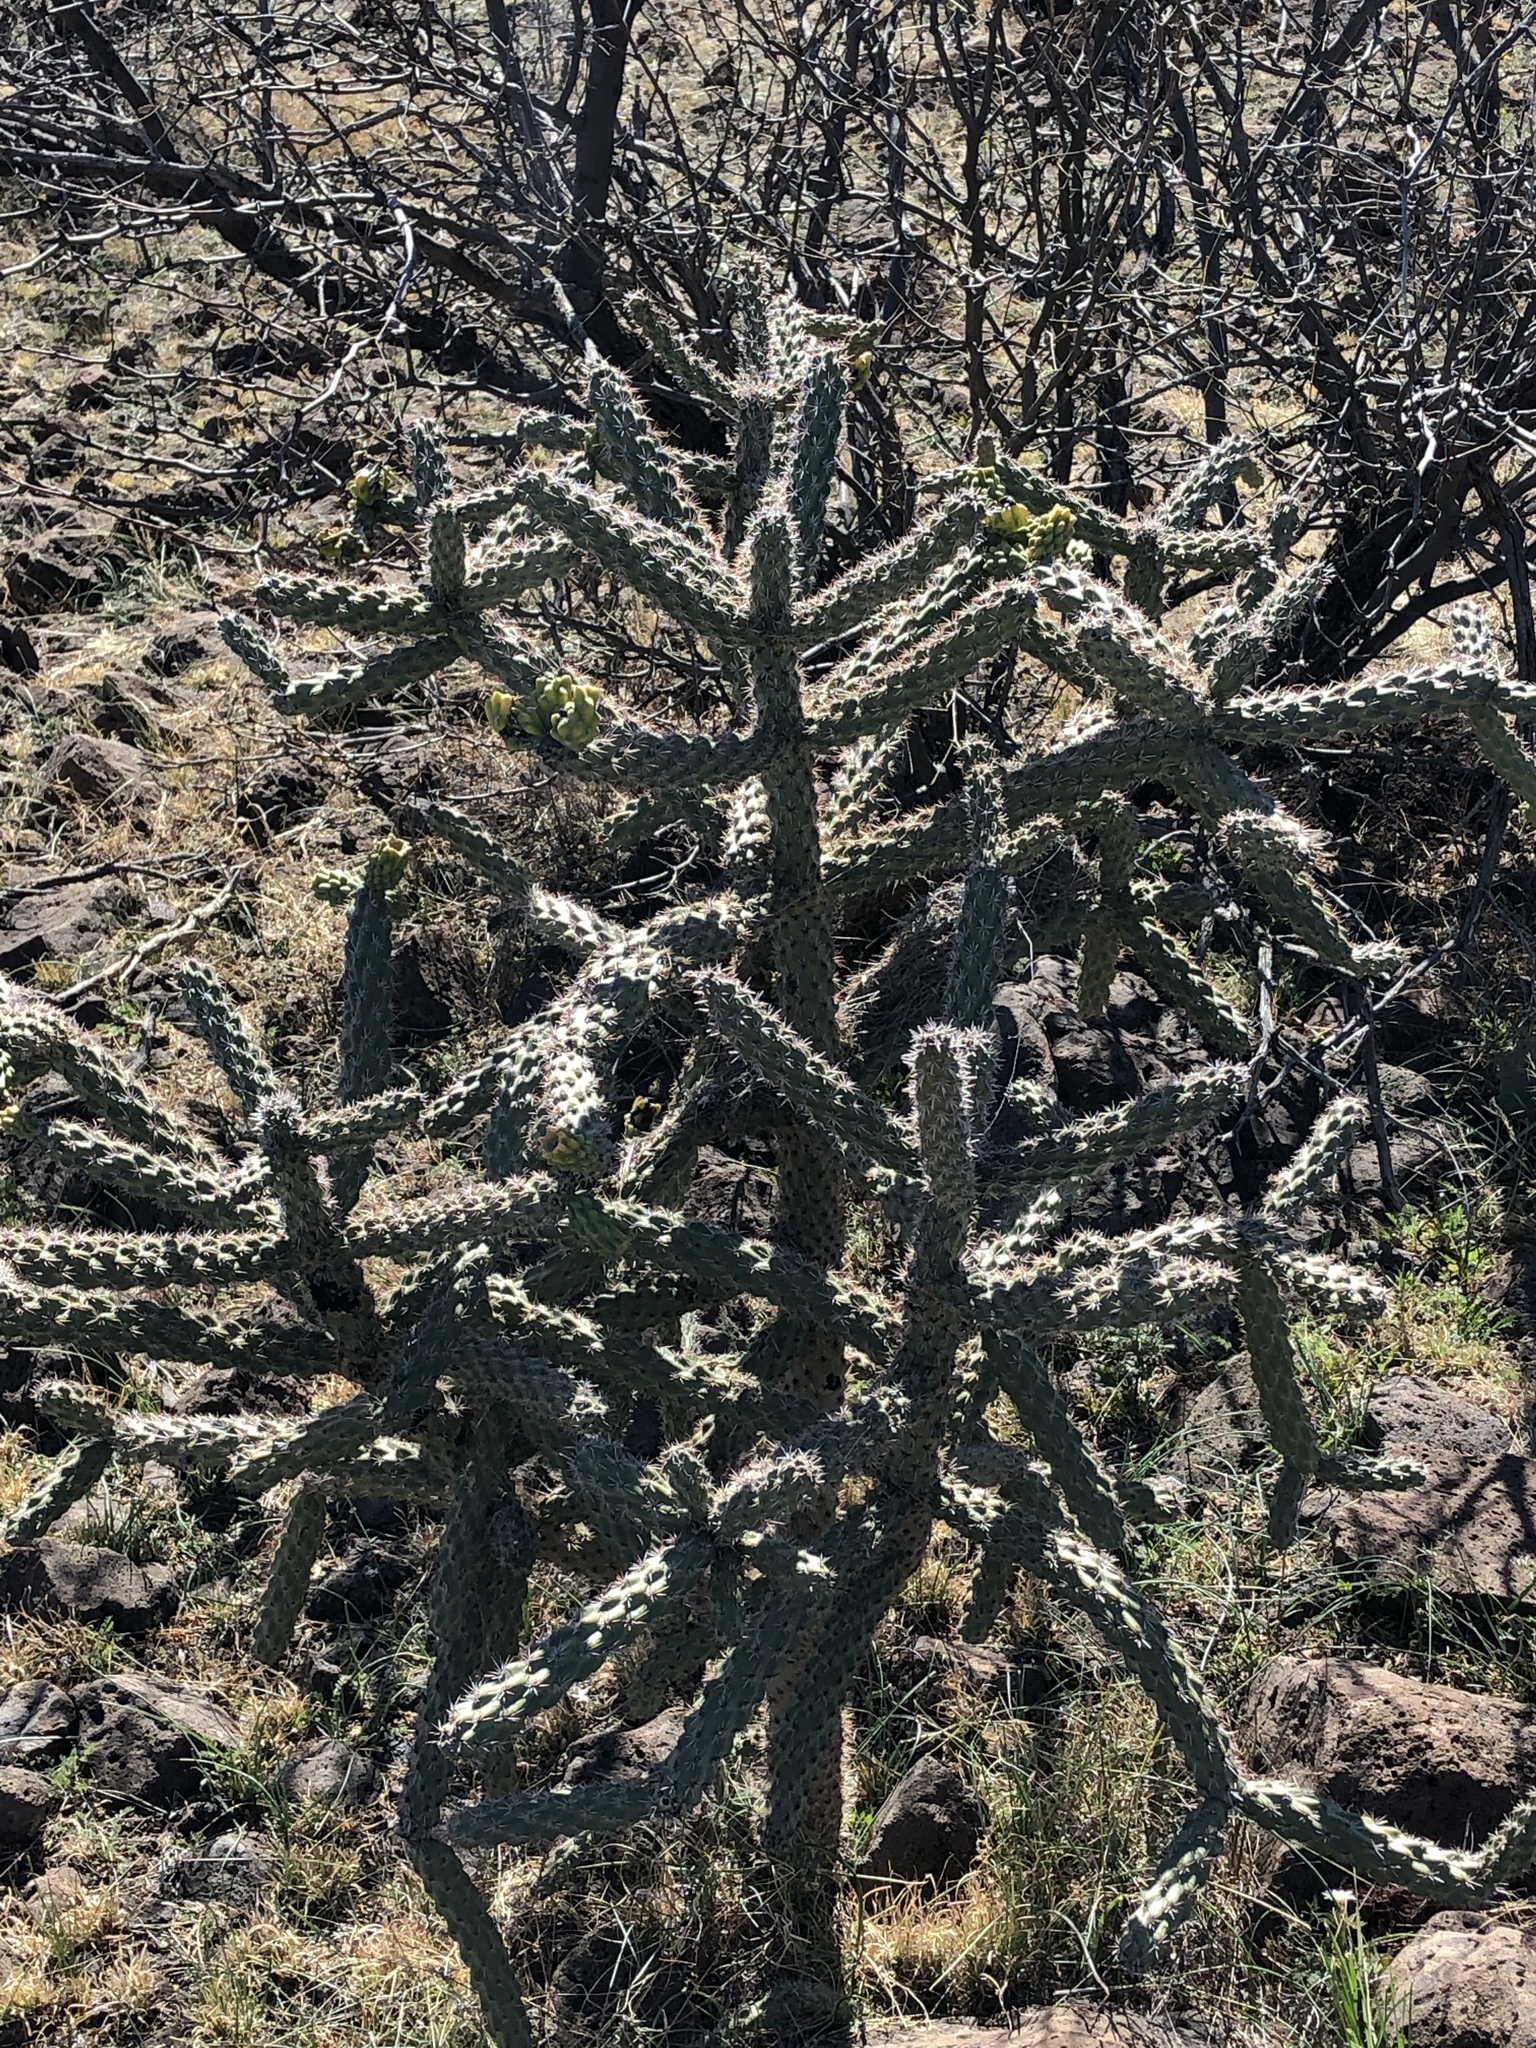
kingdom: Plantae
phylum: Tracheophyta
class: Magnoliopsida
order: Caryophyllales
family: Cactaceae
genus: Cylindropuntia
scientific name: Cylindropuntia imbricata
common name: Candelabrum cactus
